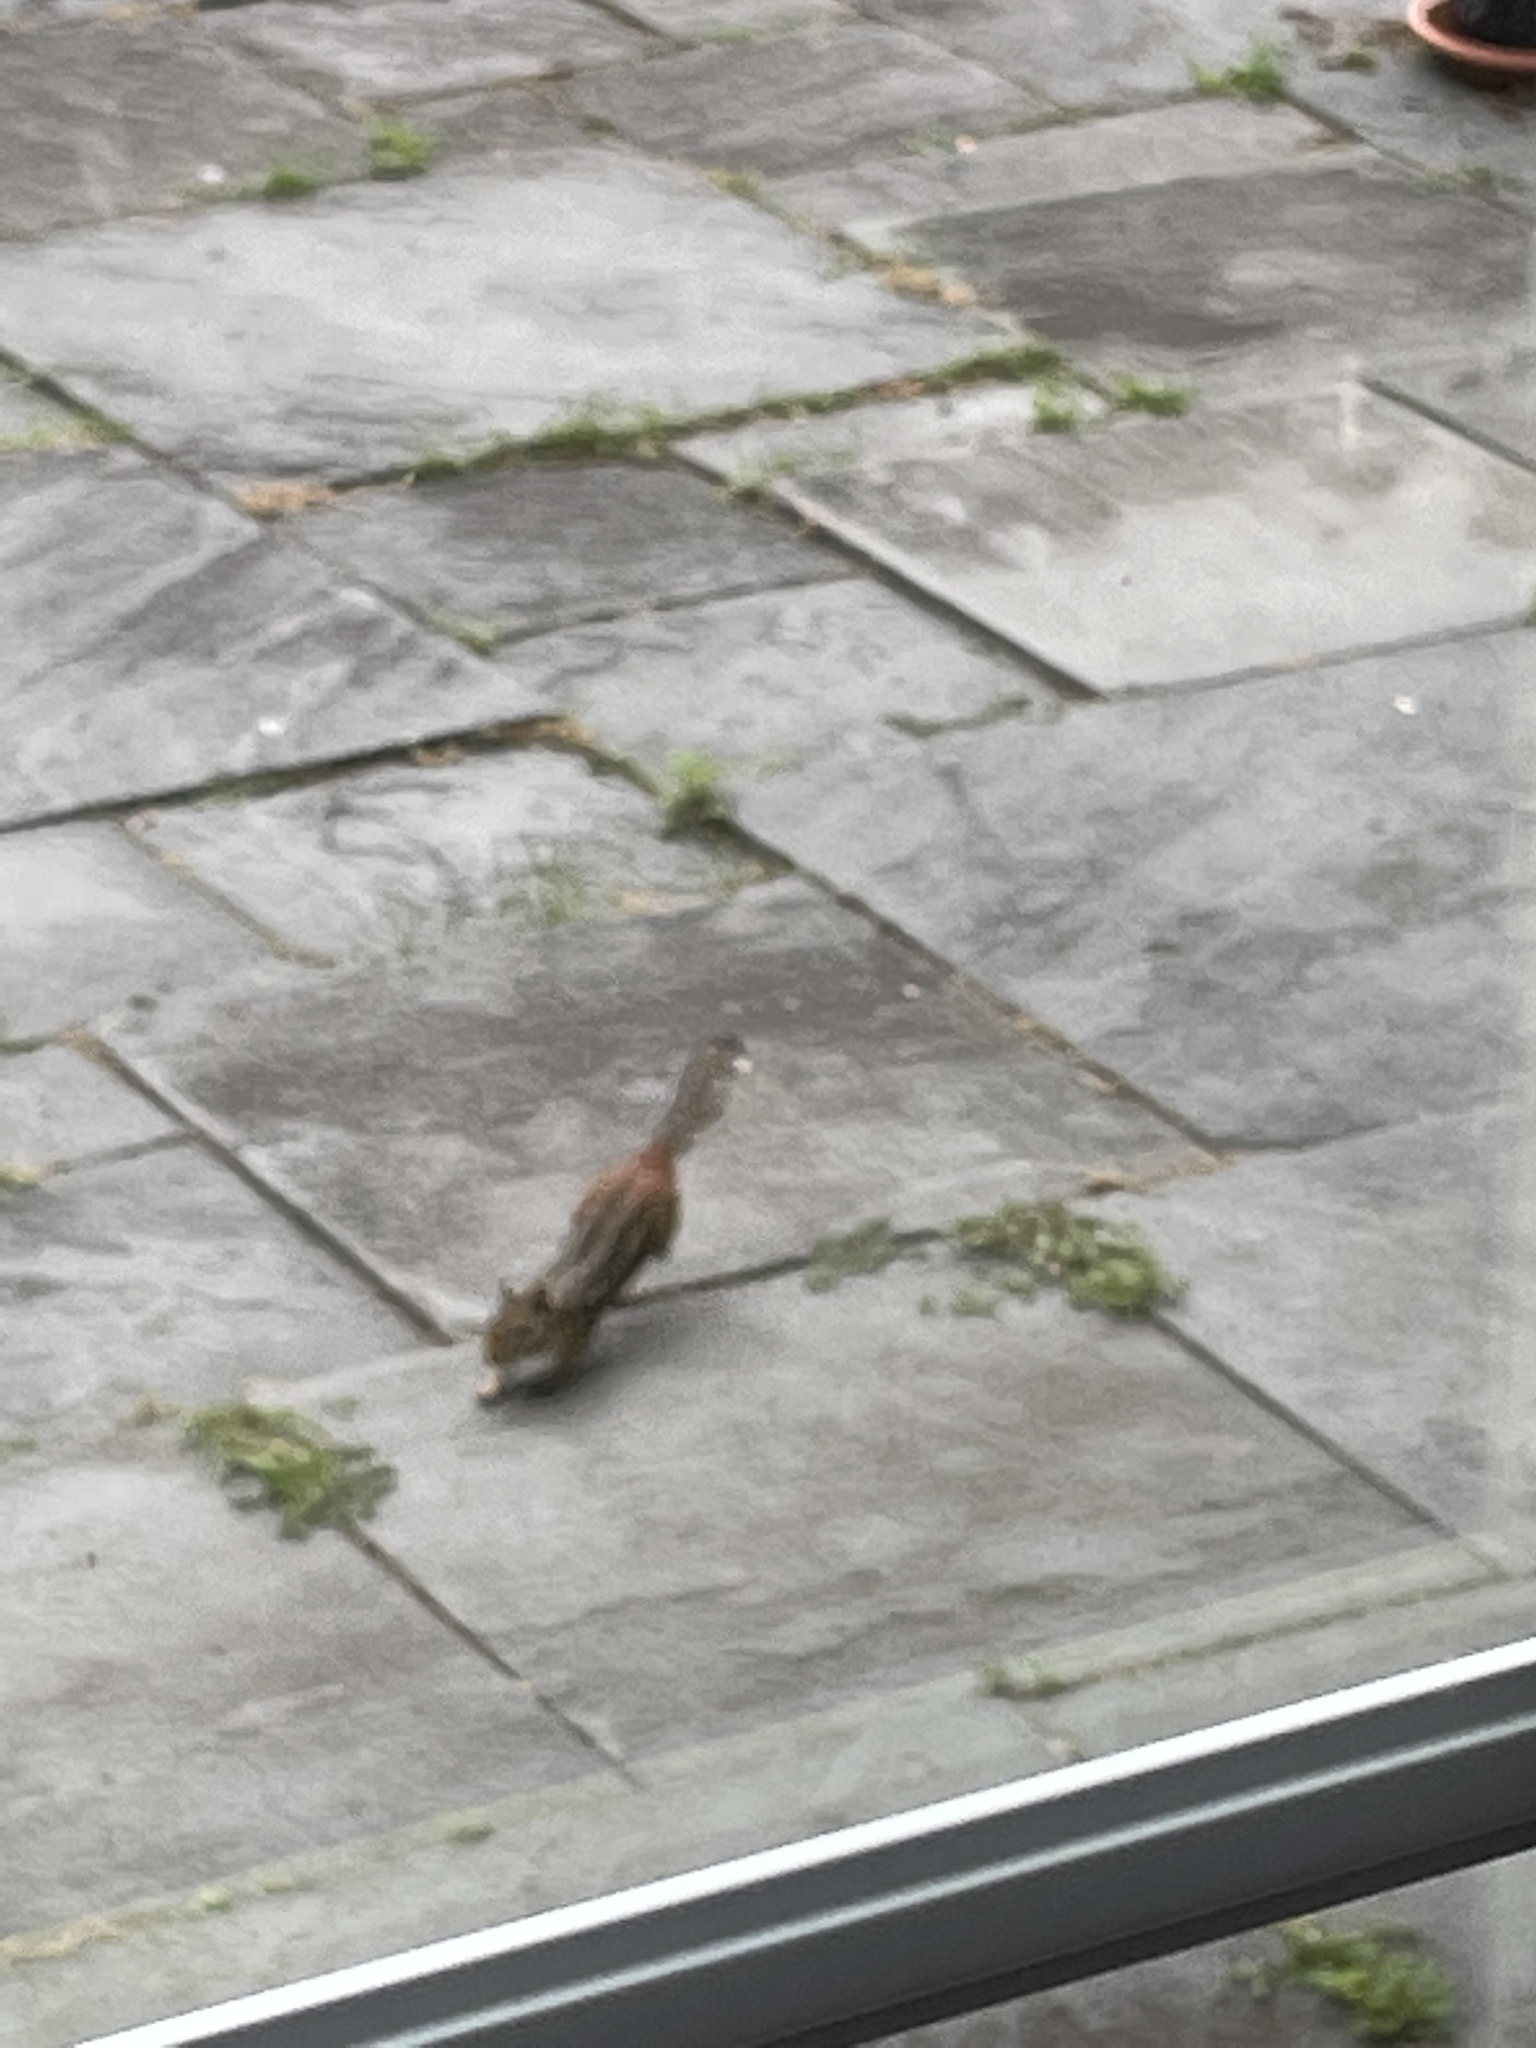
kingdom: Animalia
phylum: Chordata
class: Mammalia
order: Rodentia
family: Sciuridae
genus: Tamias
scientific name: Tamias striatus
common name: Eastern chipmunk
